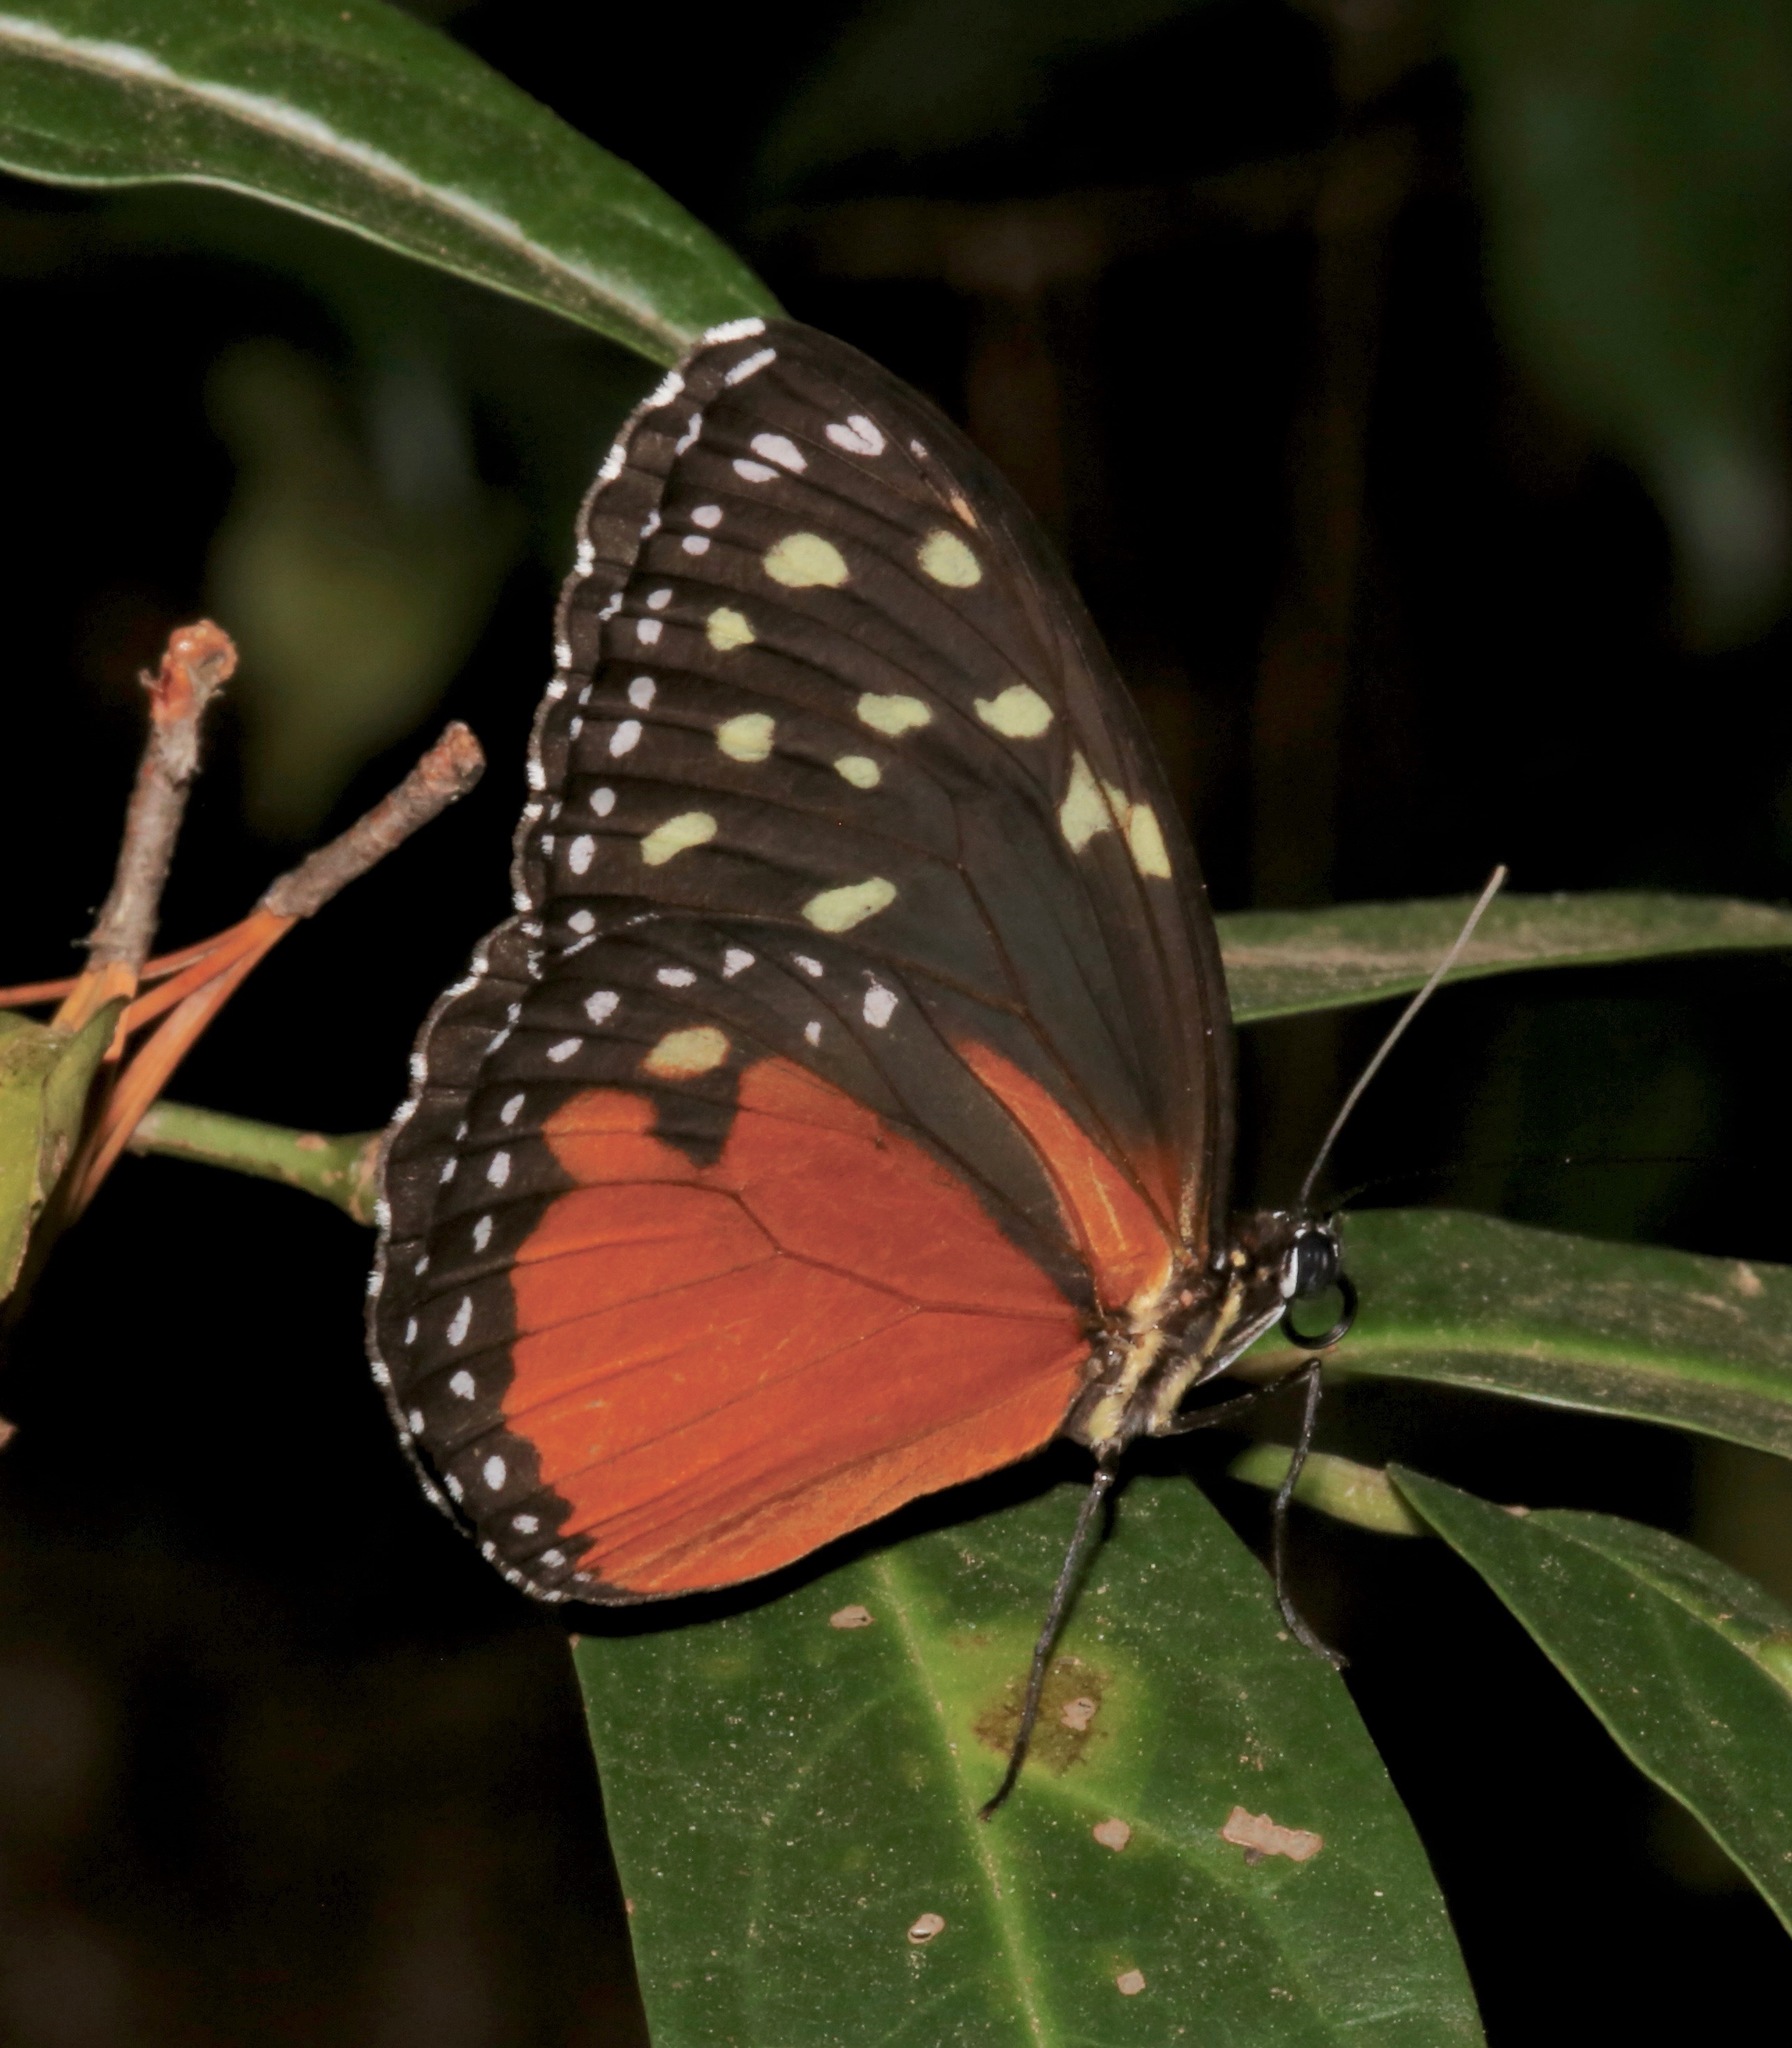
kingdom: Animalia
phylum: Arthropoda
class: Insecta
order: Lepidoptera
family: Nymphalidae
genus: Tithorea
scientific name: Tithorea tarricina
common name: Cream-spotted tigerwing
